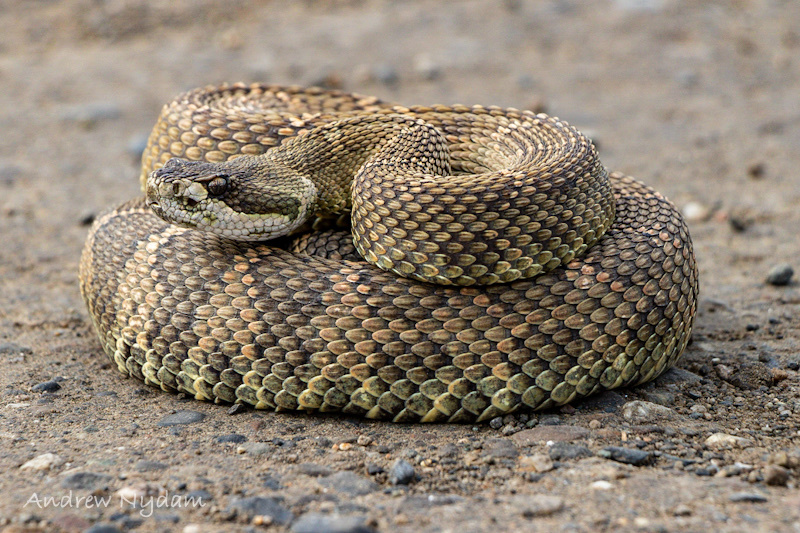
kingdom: Animalia
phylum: Chordata
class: Squamata
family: Viperidae
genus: Crotalus
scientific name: Crotalus oreganus
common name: Abyssus
